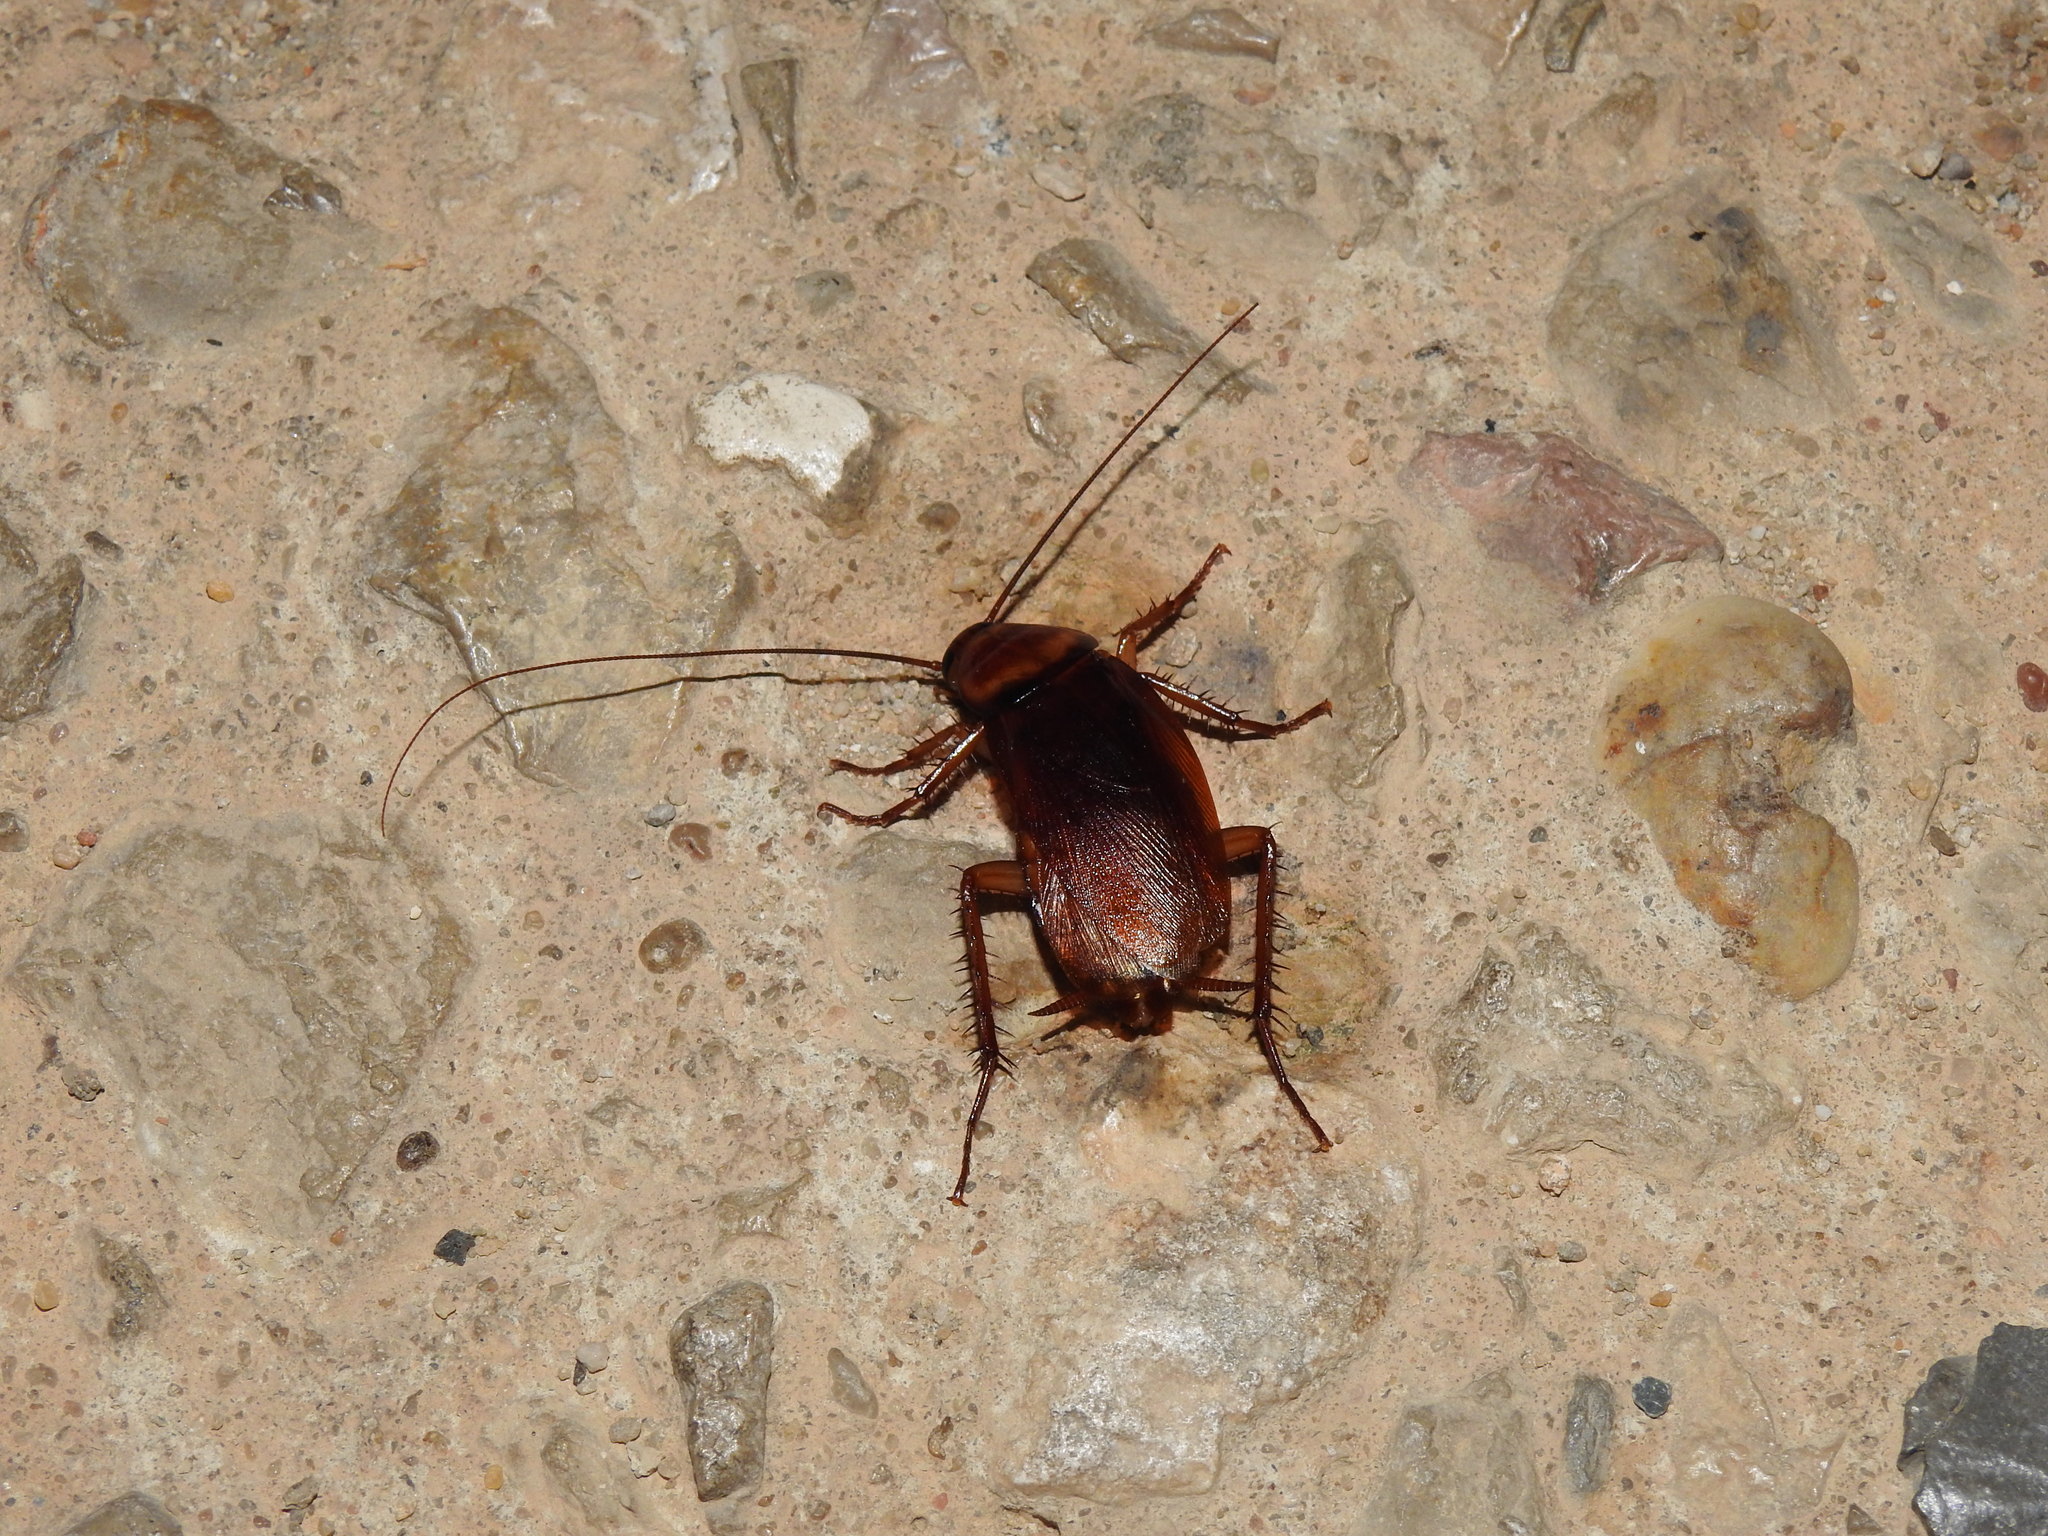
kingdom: Animalia
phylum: Arthropoda
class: Insecta
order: Blattodea
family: Blattidae
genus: Periplaneta
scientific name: Periplaneta americana
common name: American cockroach
